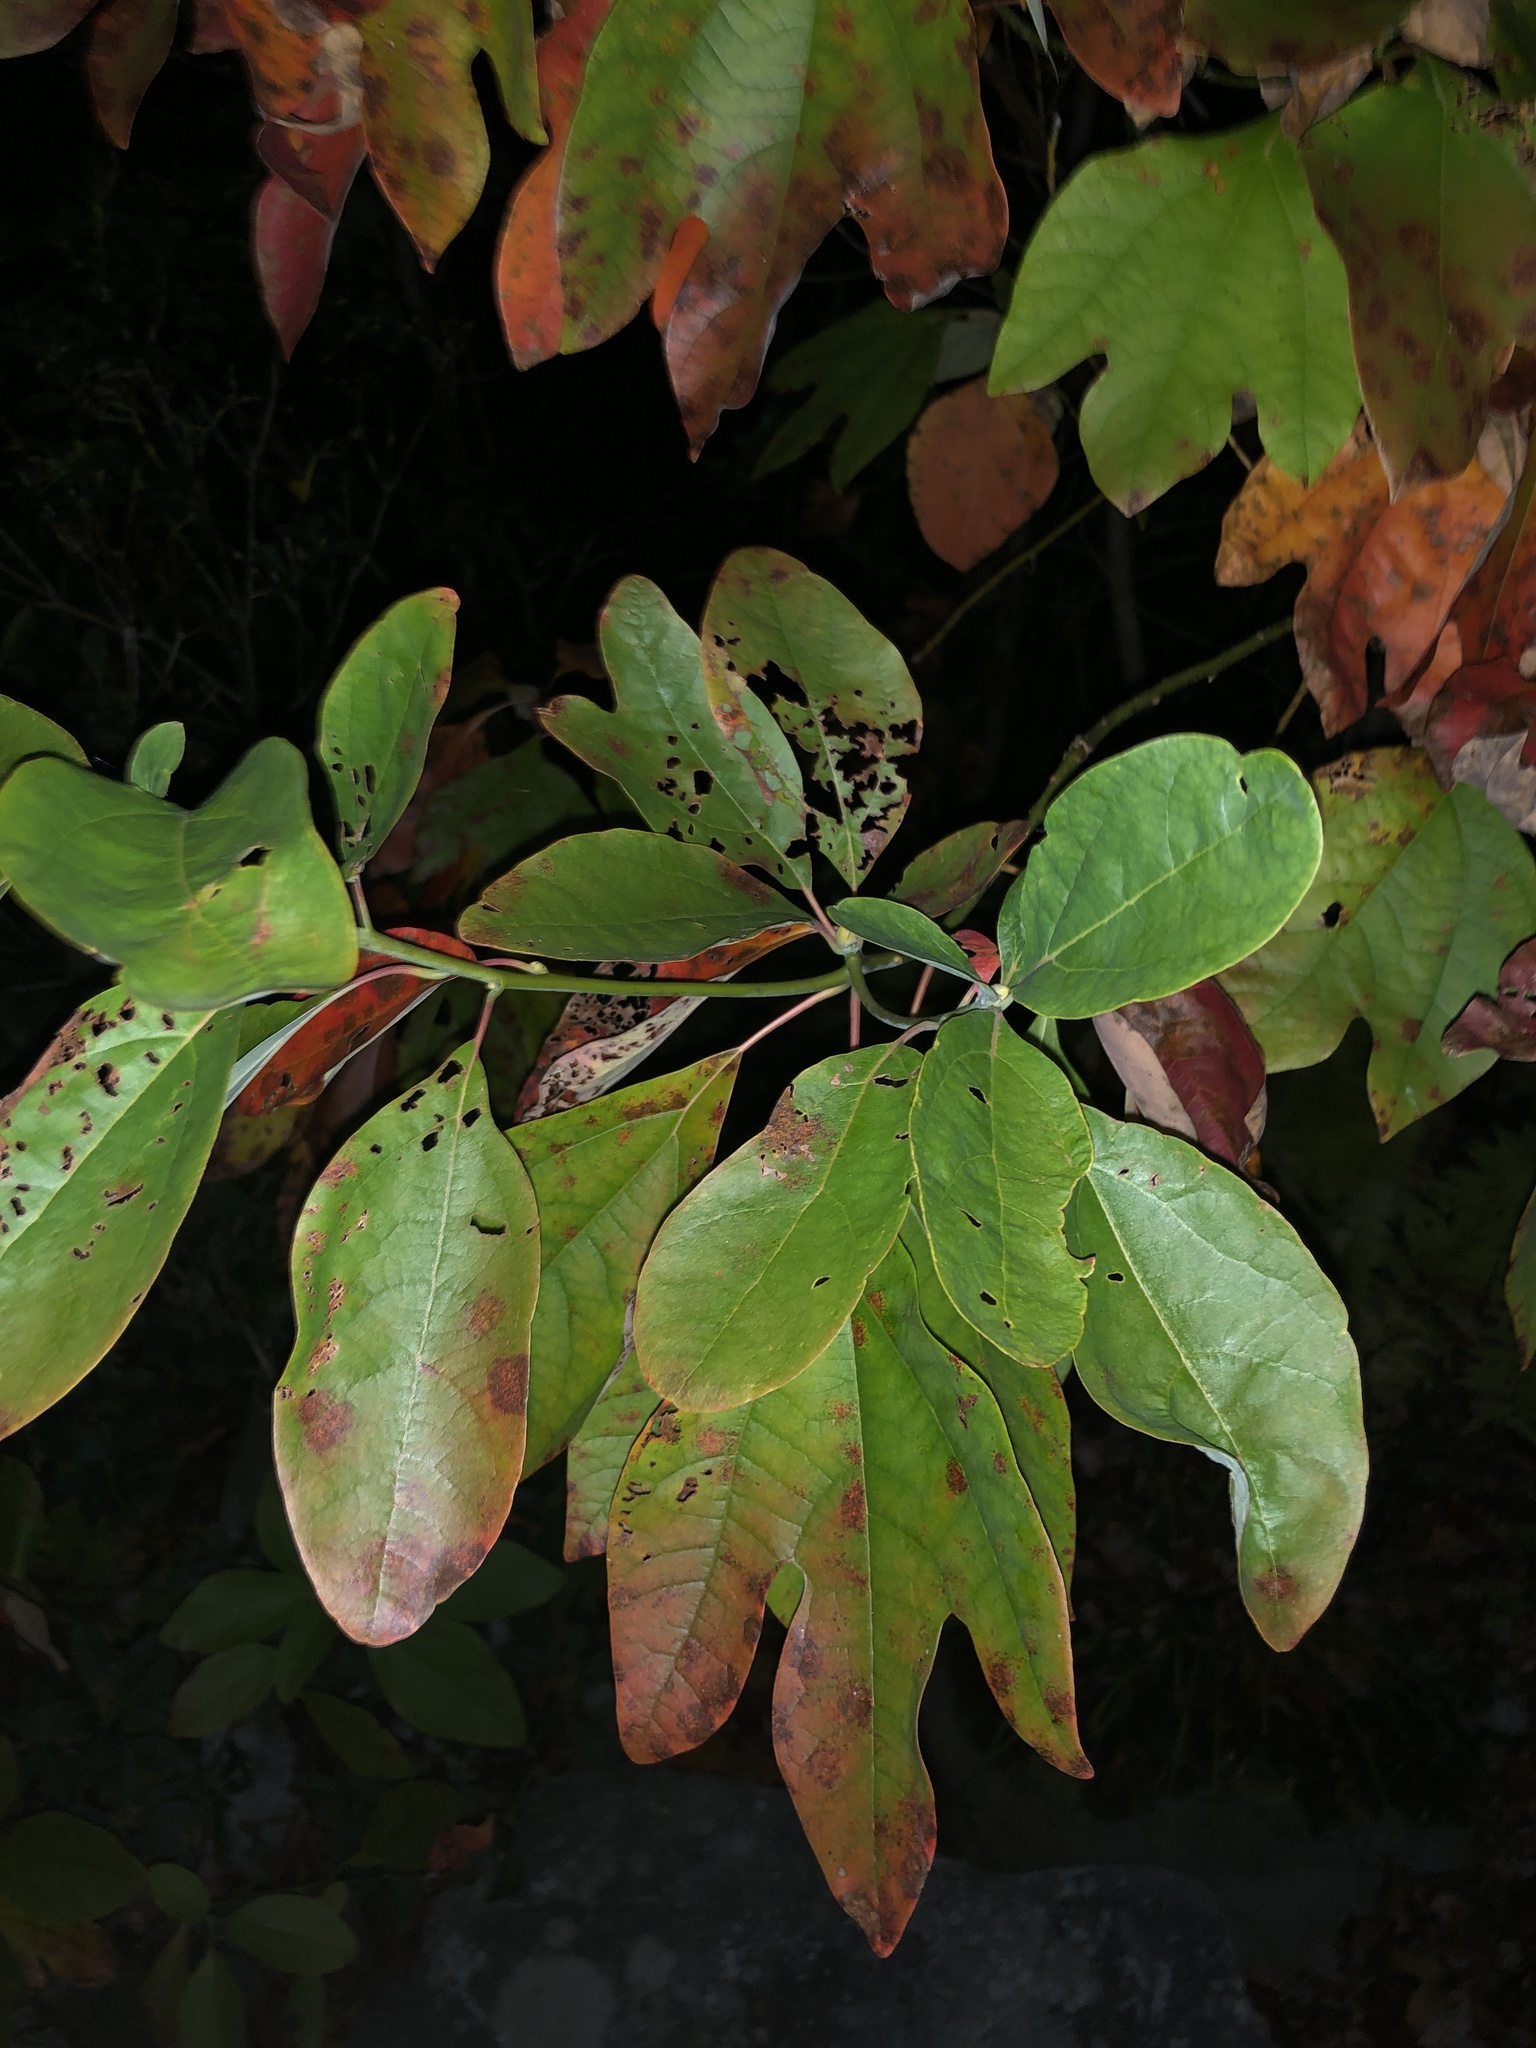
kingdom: Plantae
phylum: Tracheophyta
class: Magnoliopsida
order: Laurales
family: Lauraceae
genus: Sassafras
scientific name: Sassafras albidum
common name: Sassafras
